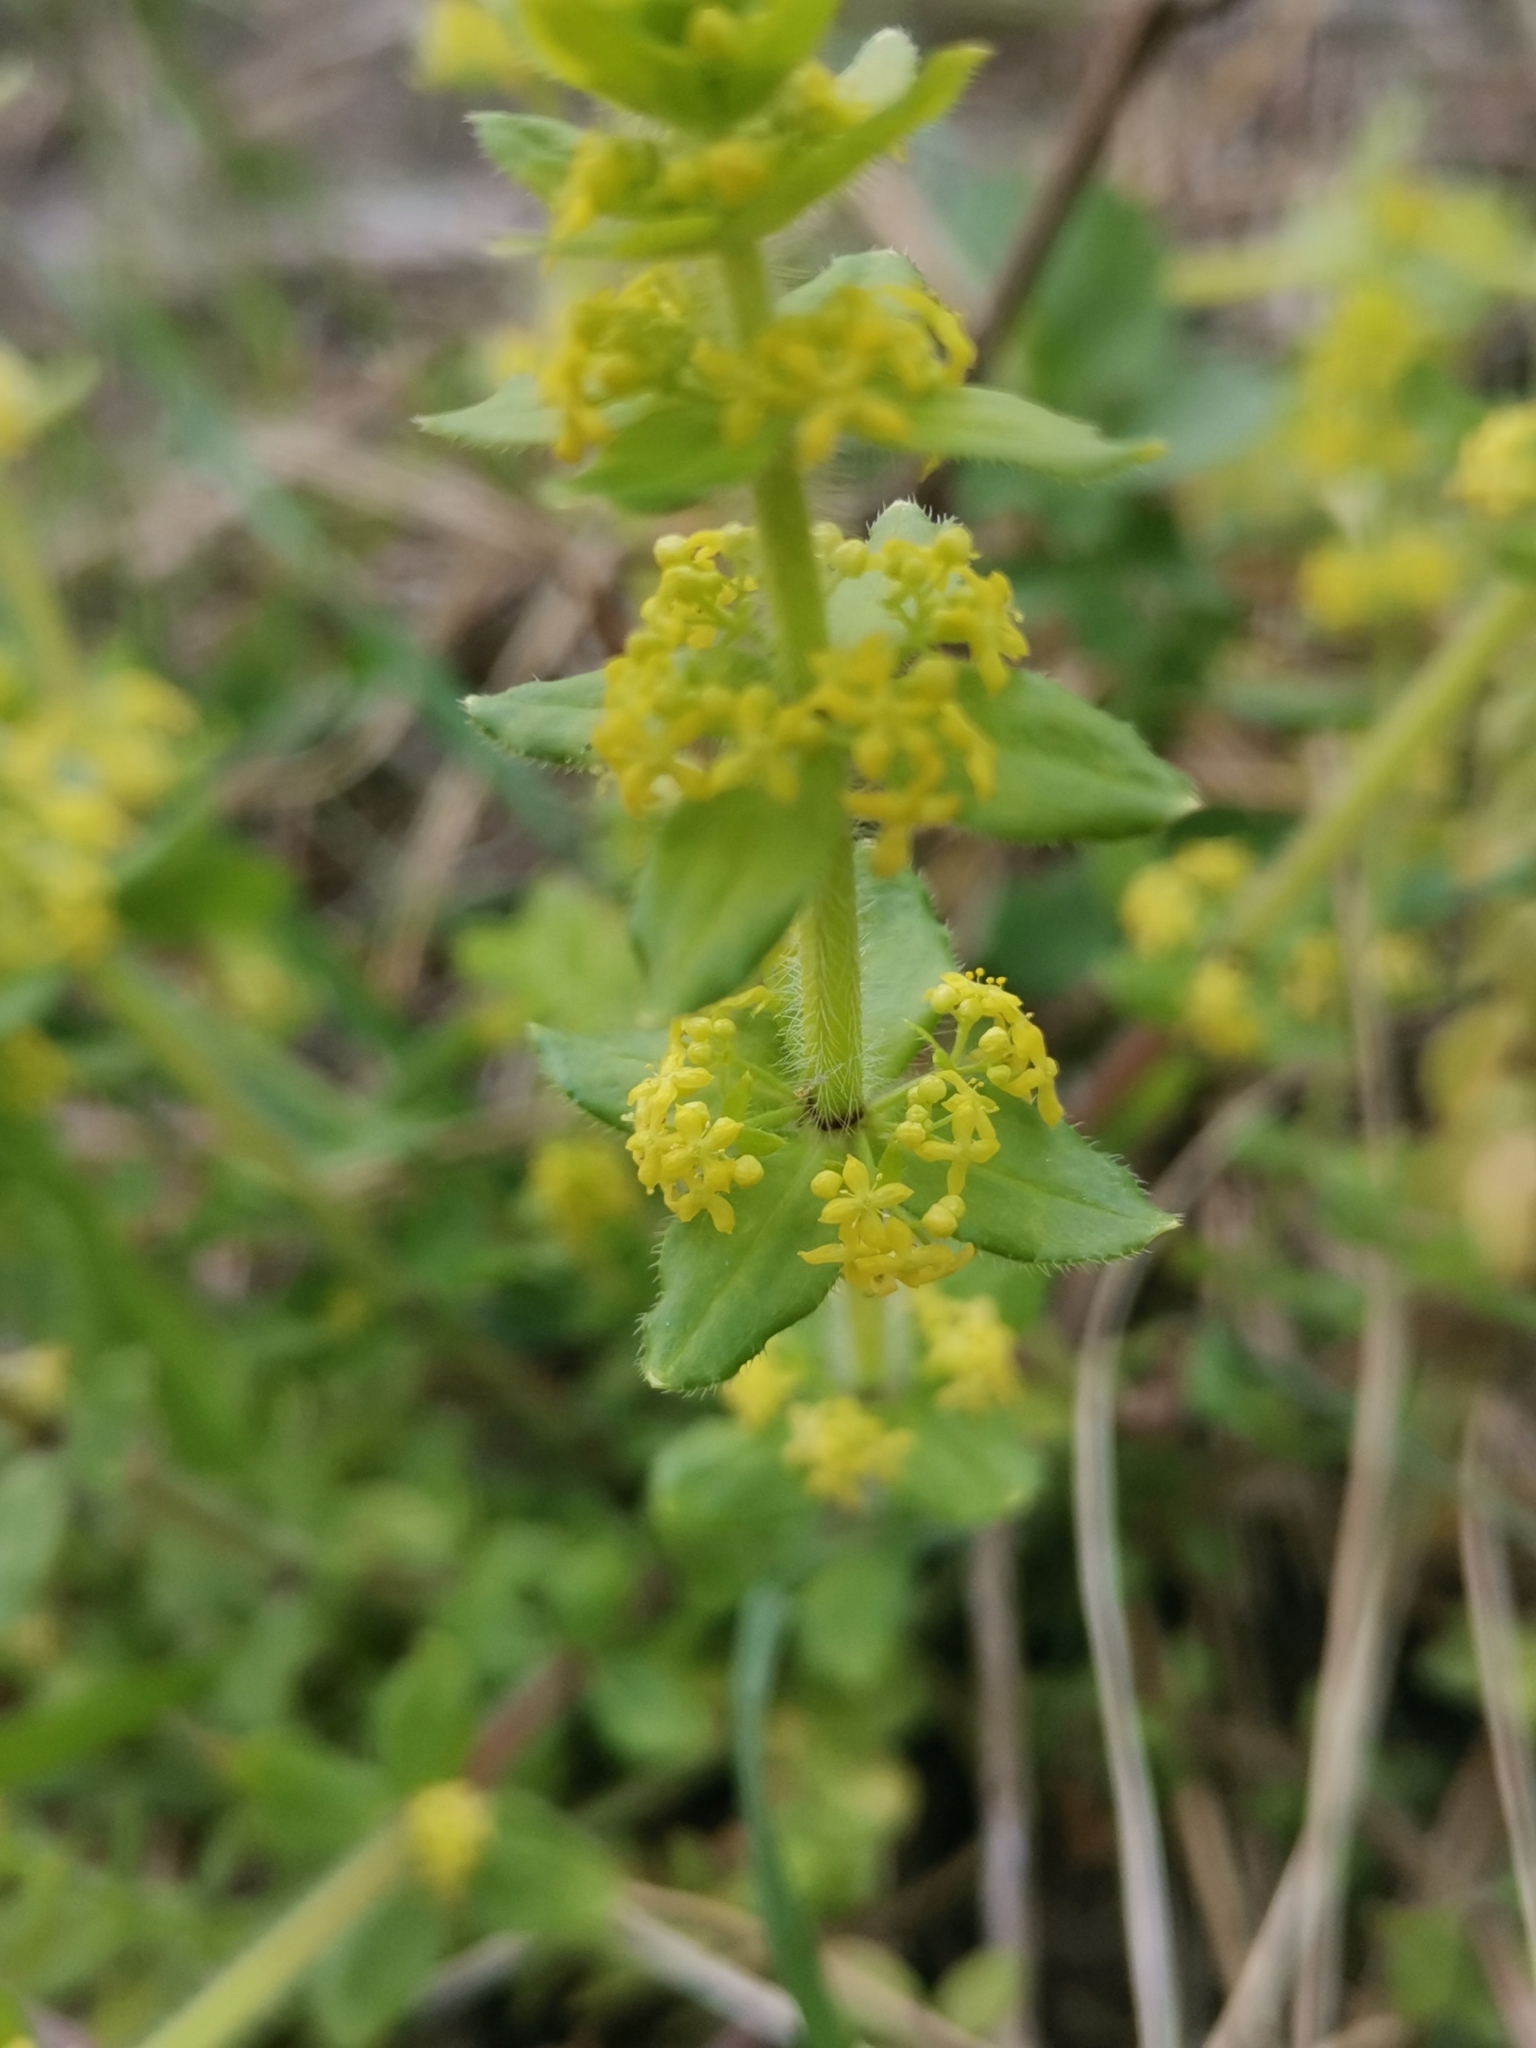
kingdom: Plantae
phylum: Tracheophyta
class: Magnoliopsida
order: Gentianales
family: Rubiaceae
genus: Cruciata
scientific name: Cruciata laevipes
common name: Crosswort
